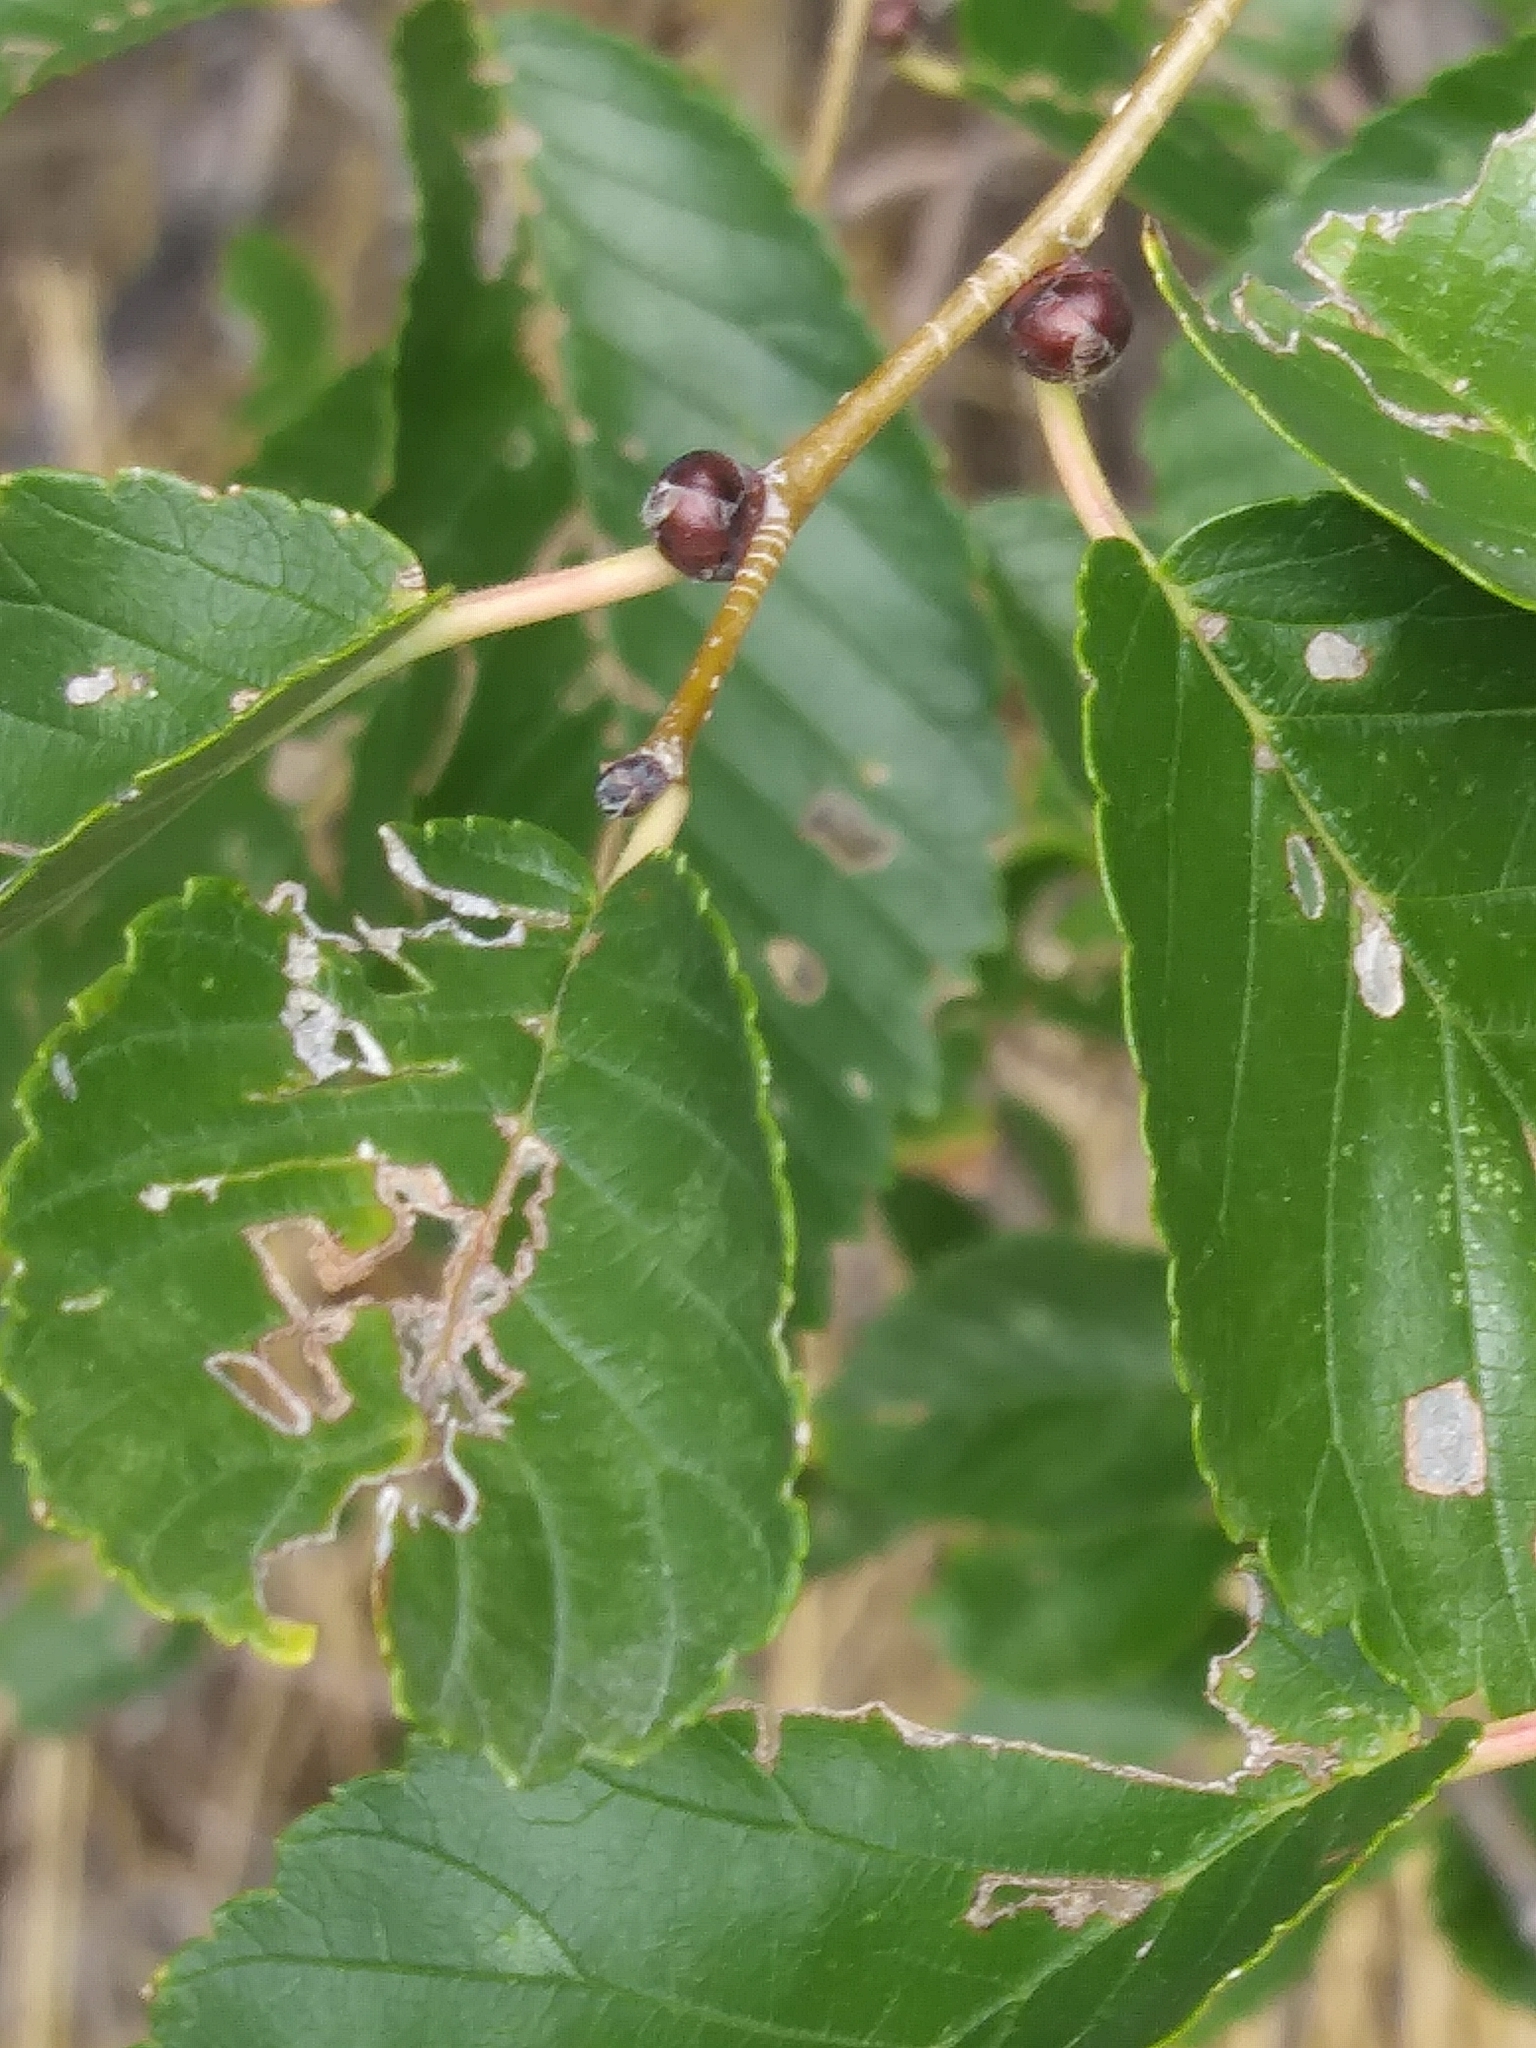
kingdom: Plantae
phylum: Tracheophyta
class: Magnoliopsida
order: Rosales
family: Ulmaceae
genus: Ulmus
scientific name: Ulmus americana
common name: American elm
